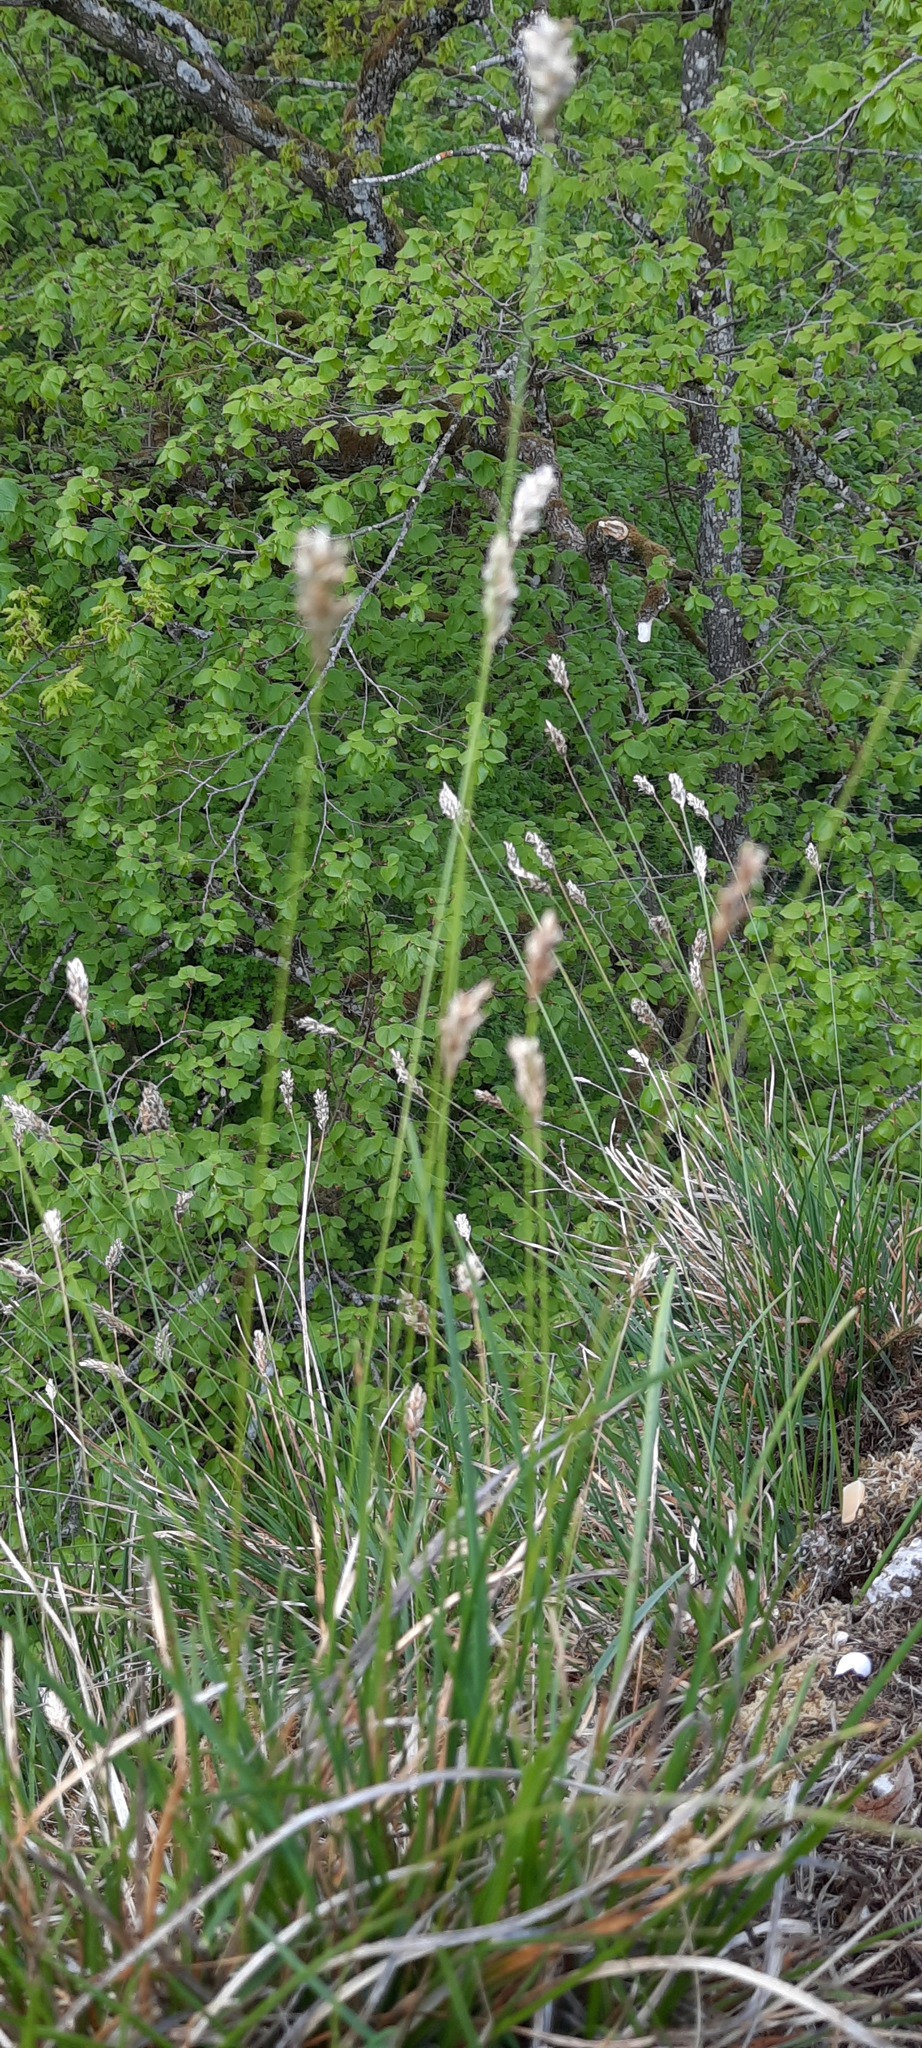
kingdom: Plantae
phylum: Tracheophyta
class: Liliopsida
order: Poales
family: Poaceae
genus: Sesleria
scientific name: Sesleria caerulea
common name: Blue moor-grass
